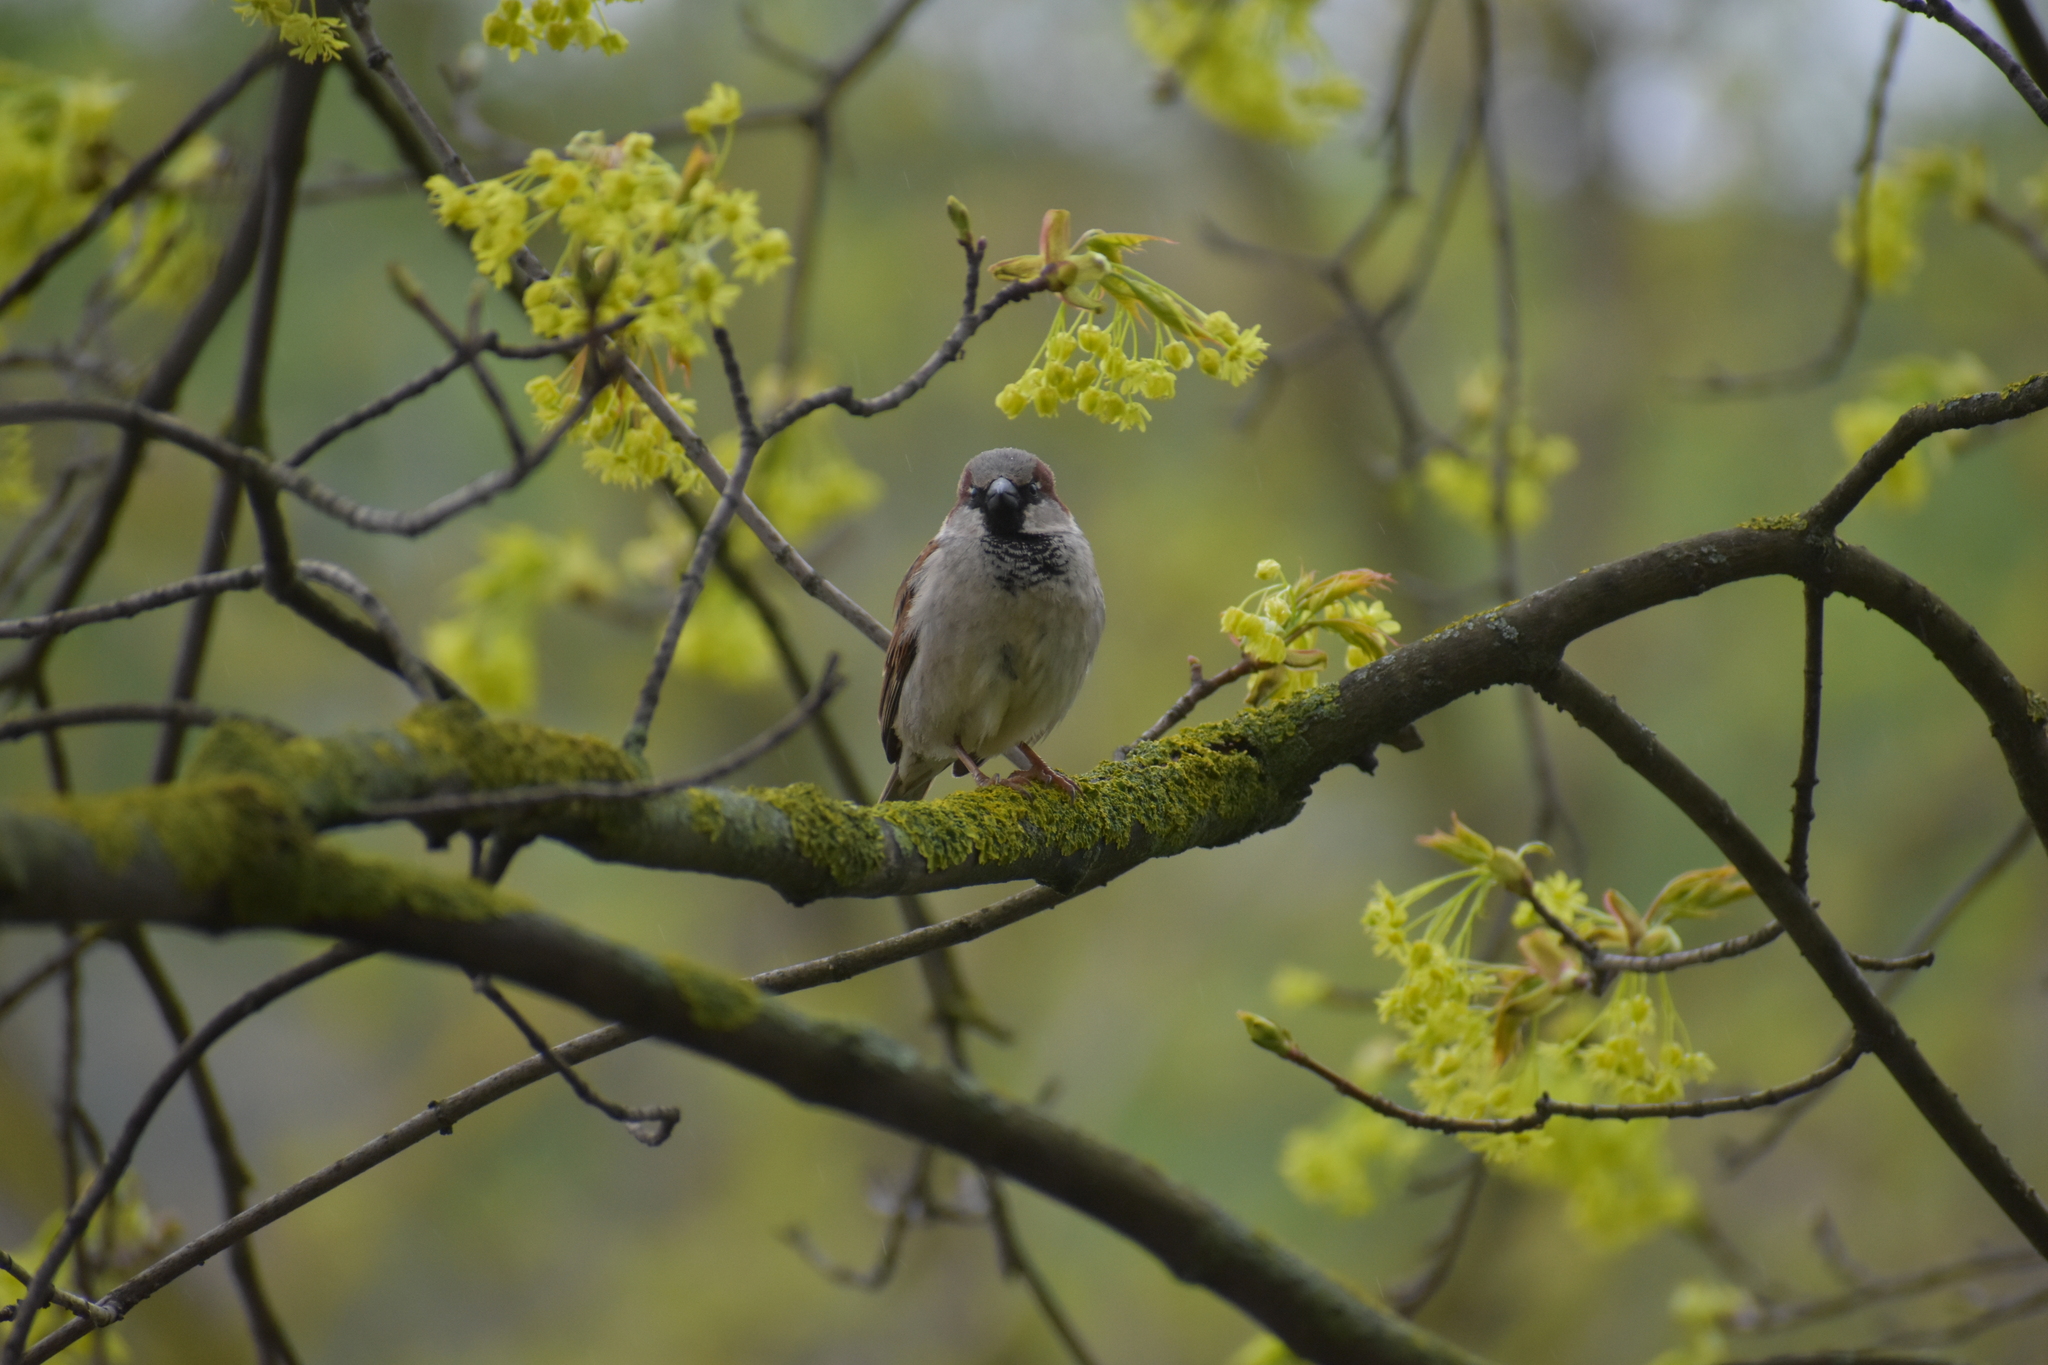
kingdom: Animalia
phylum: Chordata
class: Aves
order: Passeriformes
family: Passeridae
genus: Passer
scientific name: Passer domesticus
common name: House sparrow
